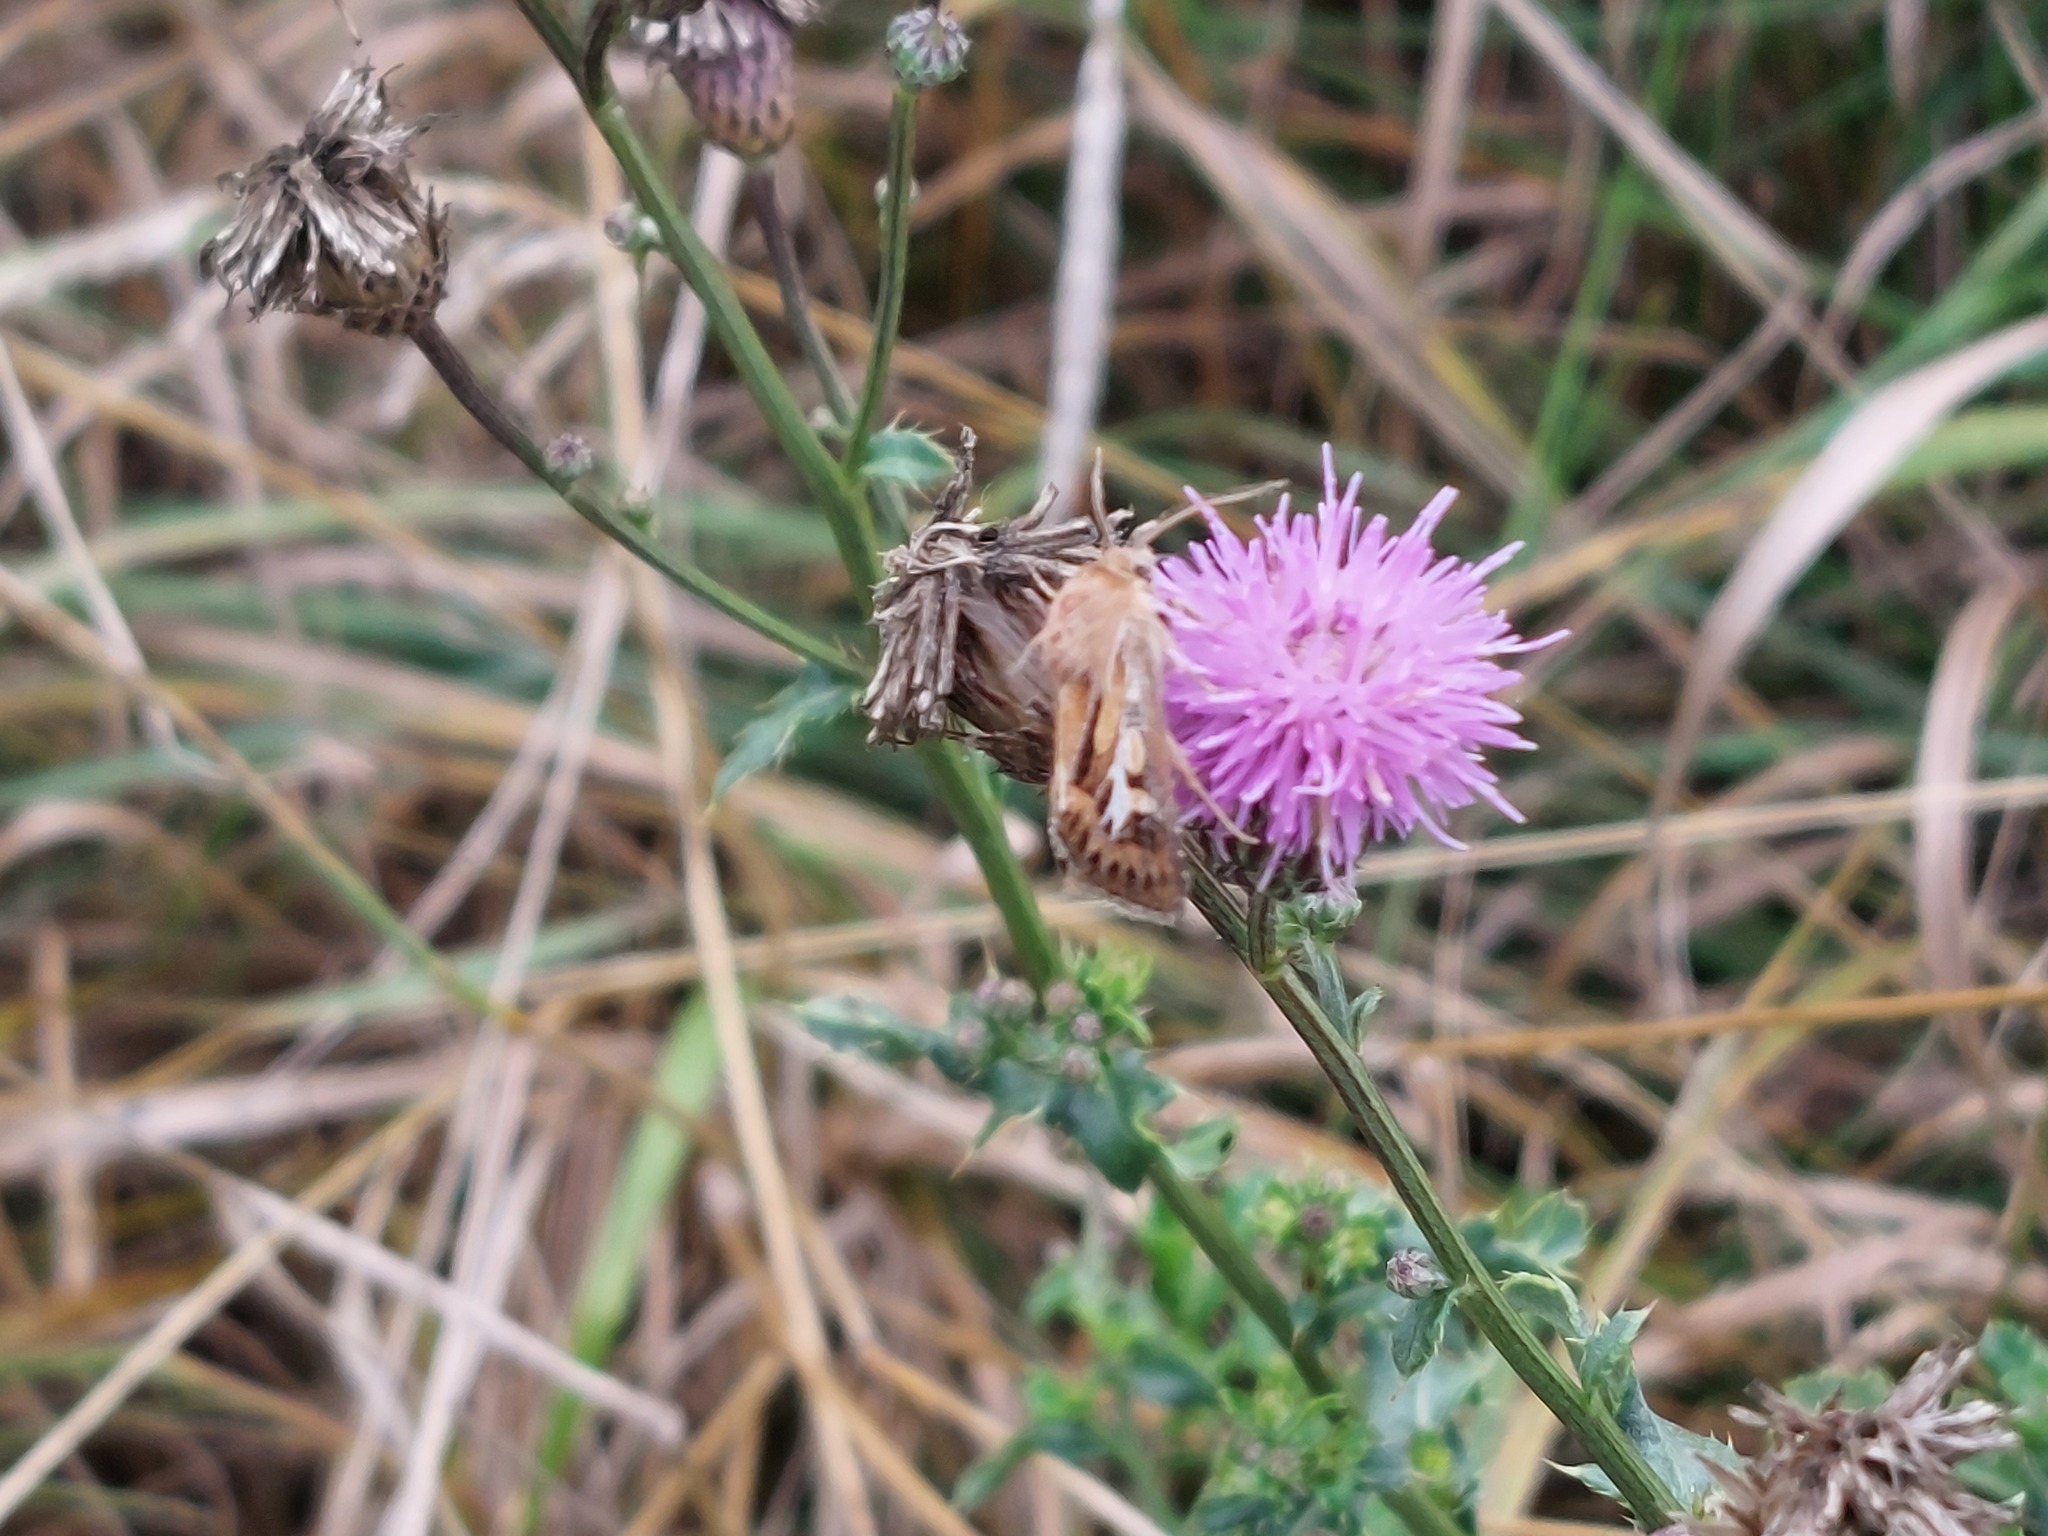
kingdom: Animalia
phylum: Arthropoda
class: Insecta
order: Lepidoptera
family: Noctuidae
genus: Cerapteryx
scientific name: Cerapteryx graminis
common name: Antler moth
